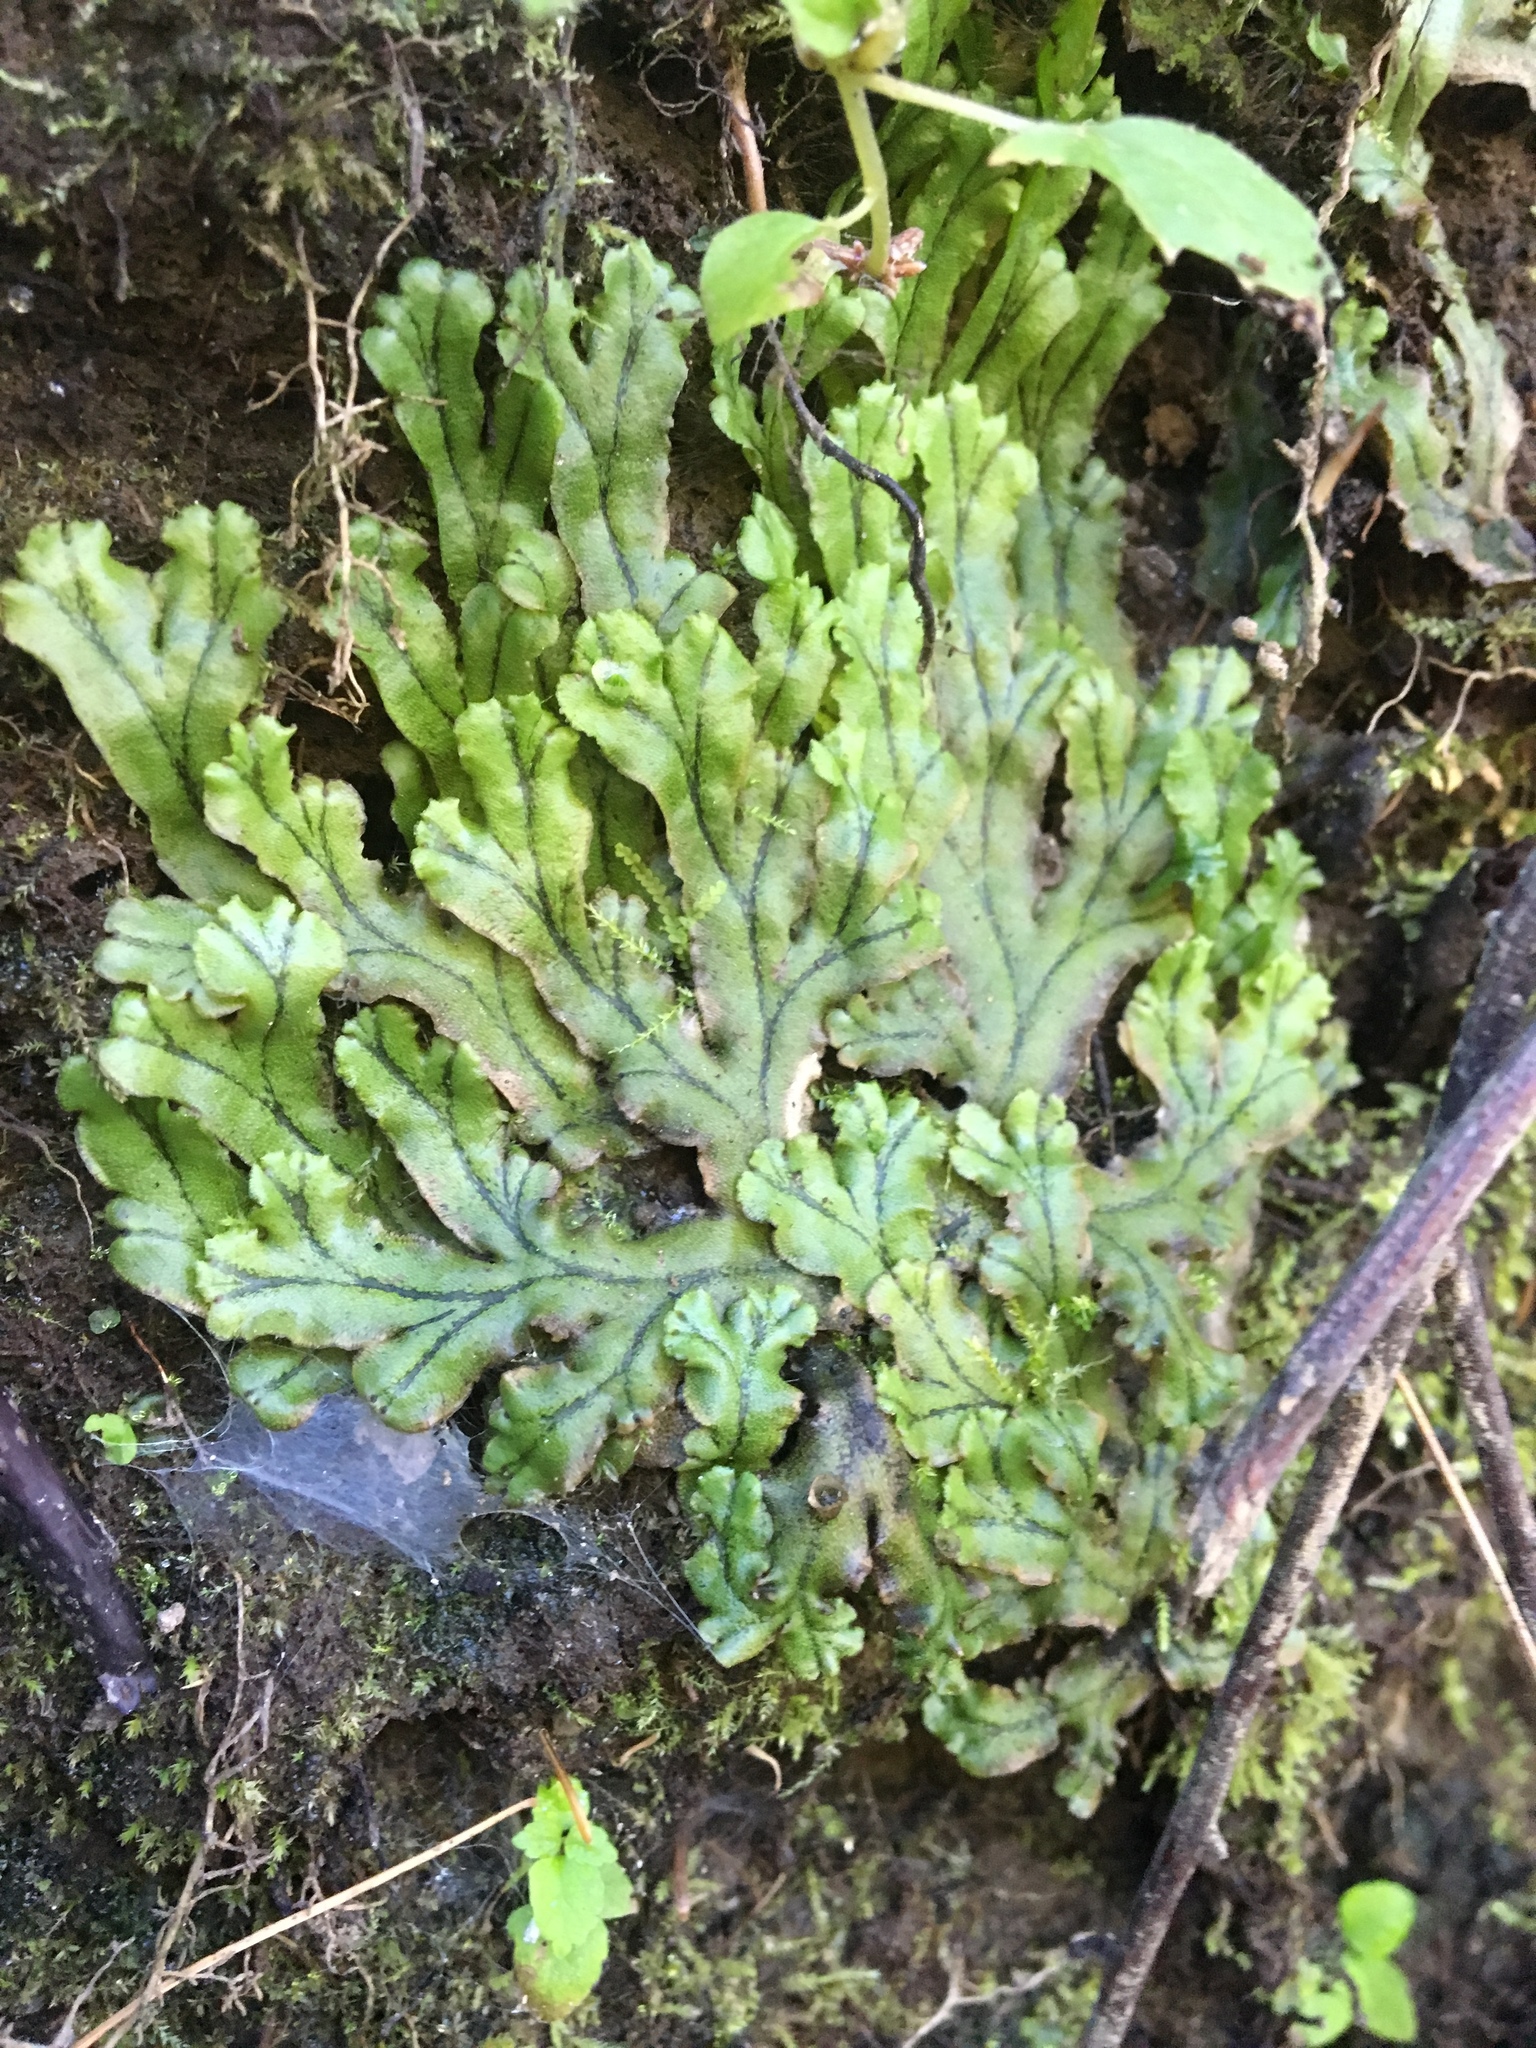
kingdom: Plantae
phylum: Marchantiophyta
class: Marchantiopsida
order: Marchantiales
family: Marchantiaceae
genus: Marchantia
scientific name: Marchantia polymorpha
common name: Common liverwort
